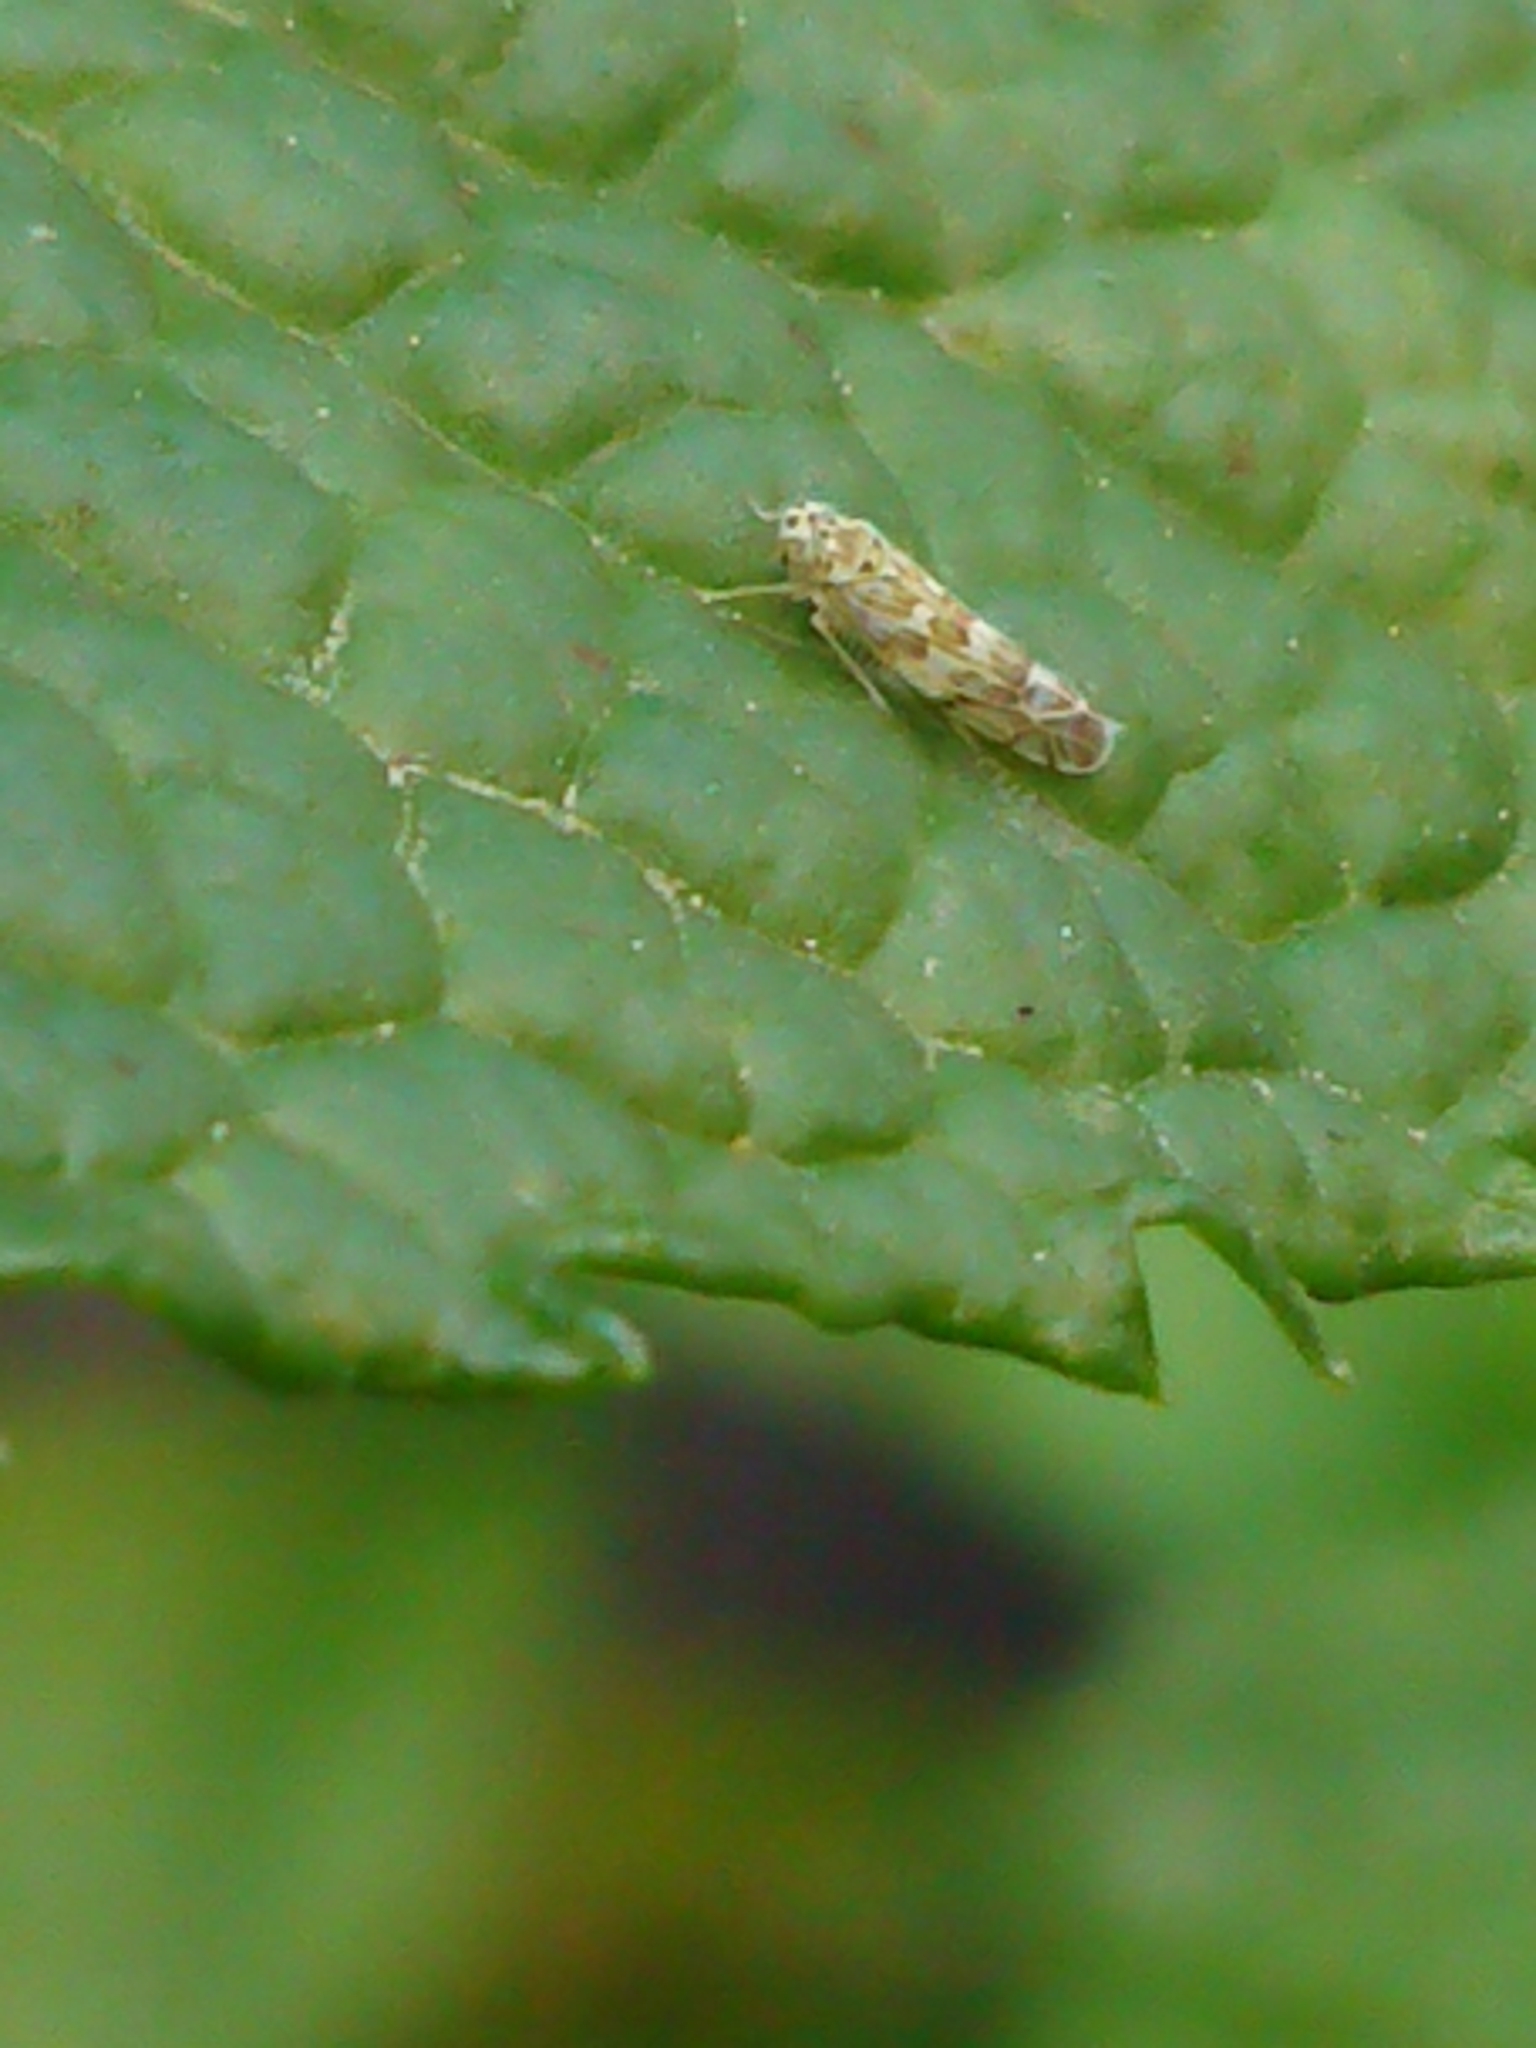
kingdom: Animalia
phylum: Arthropoda
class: Insecta
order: Hemiptera
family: Cicadellidae
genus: Eupteryx
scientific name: Eupteryx melissae
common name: Herb leafhopper
